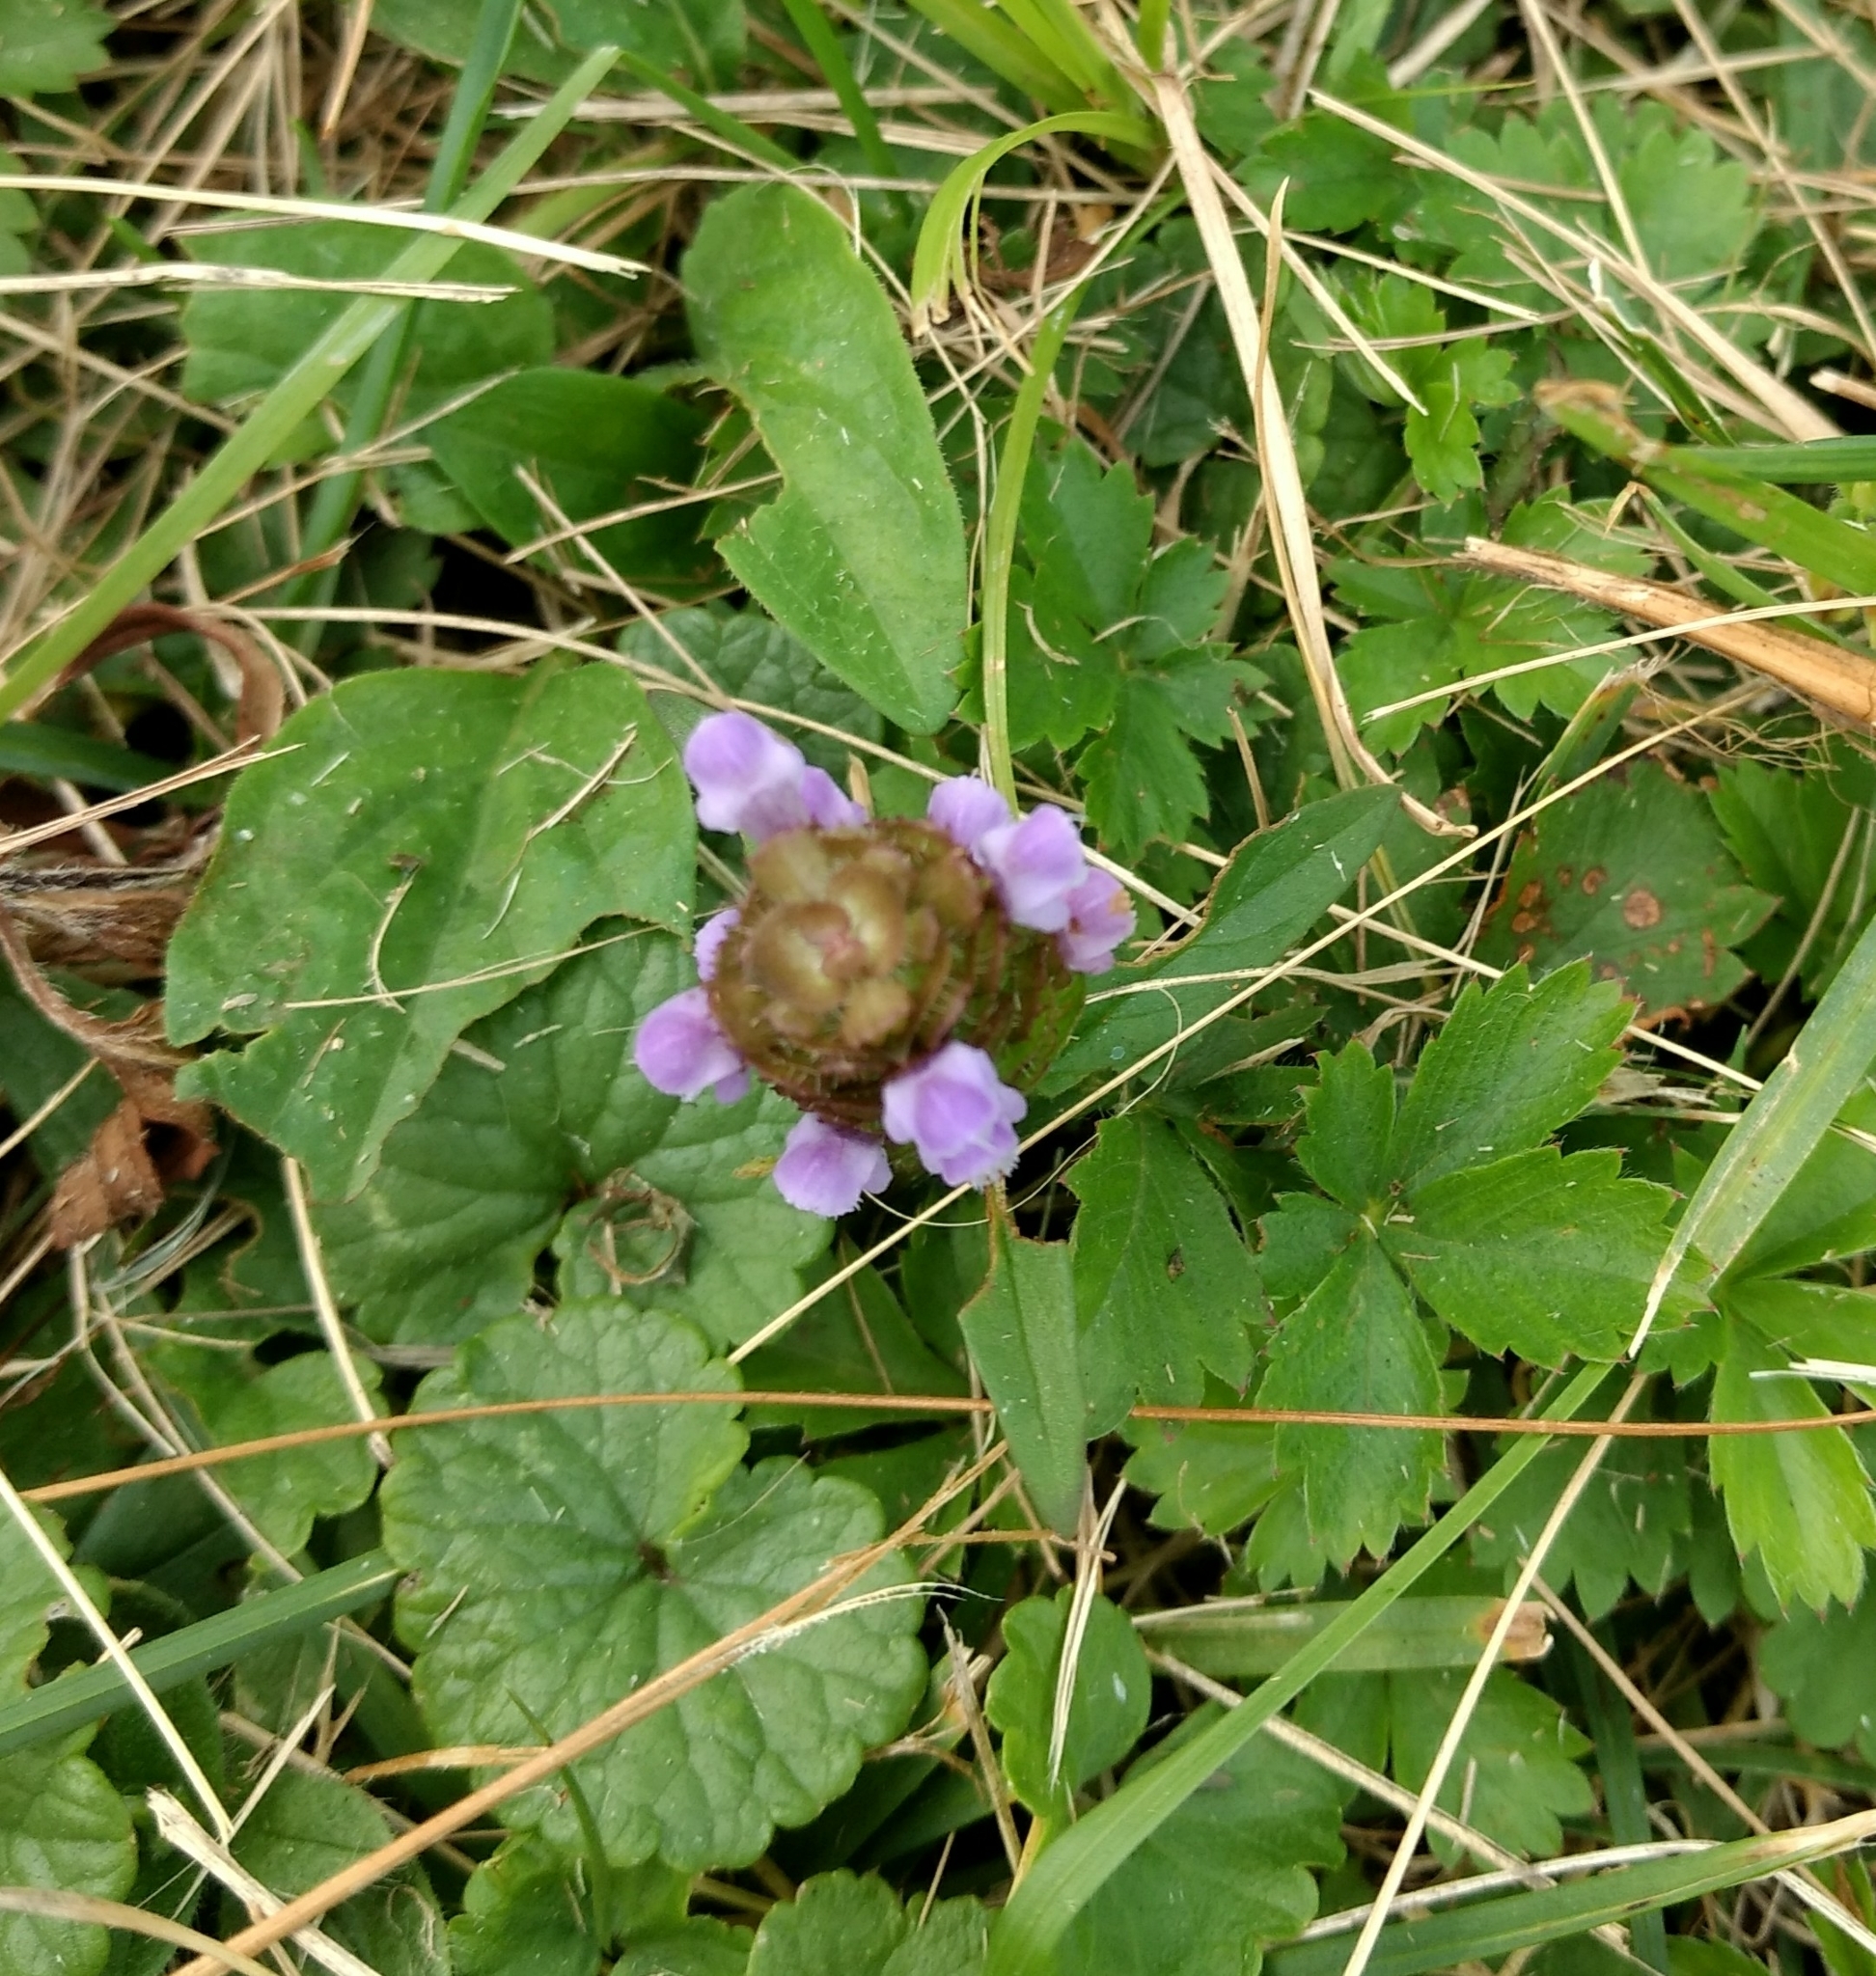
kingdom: Plantae
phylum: Tracheophyta
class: Magnoliopsida
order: Lamiales
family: Lamiaceae
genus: Prunella
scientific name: Prunella vulgaris
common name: Heal-all
